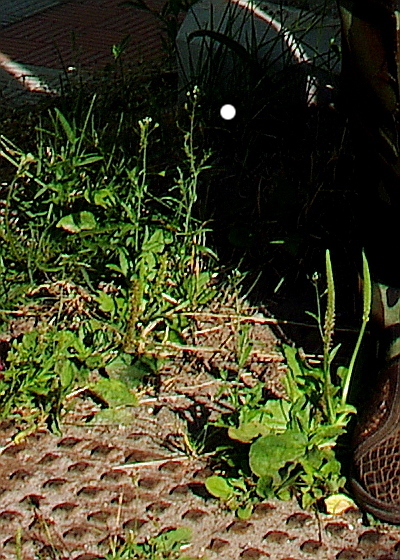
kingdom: Plantae
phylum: Tracheophyta
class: Magnoliopsida
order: Brassicales
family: Brassicaceae
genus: Capsella
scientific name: Capsella bursa-pastoris
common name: Shepherd's purse
